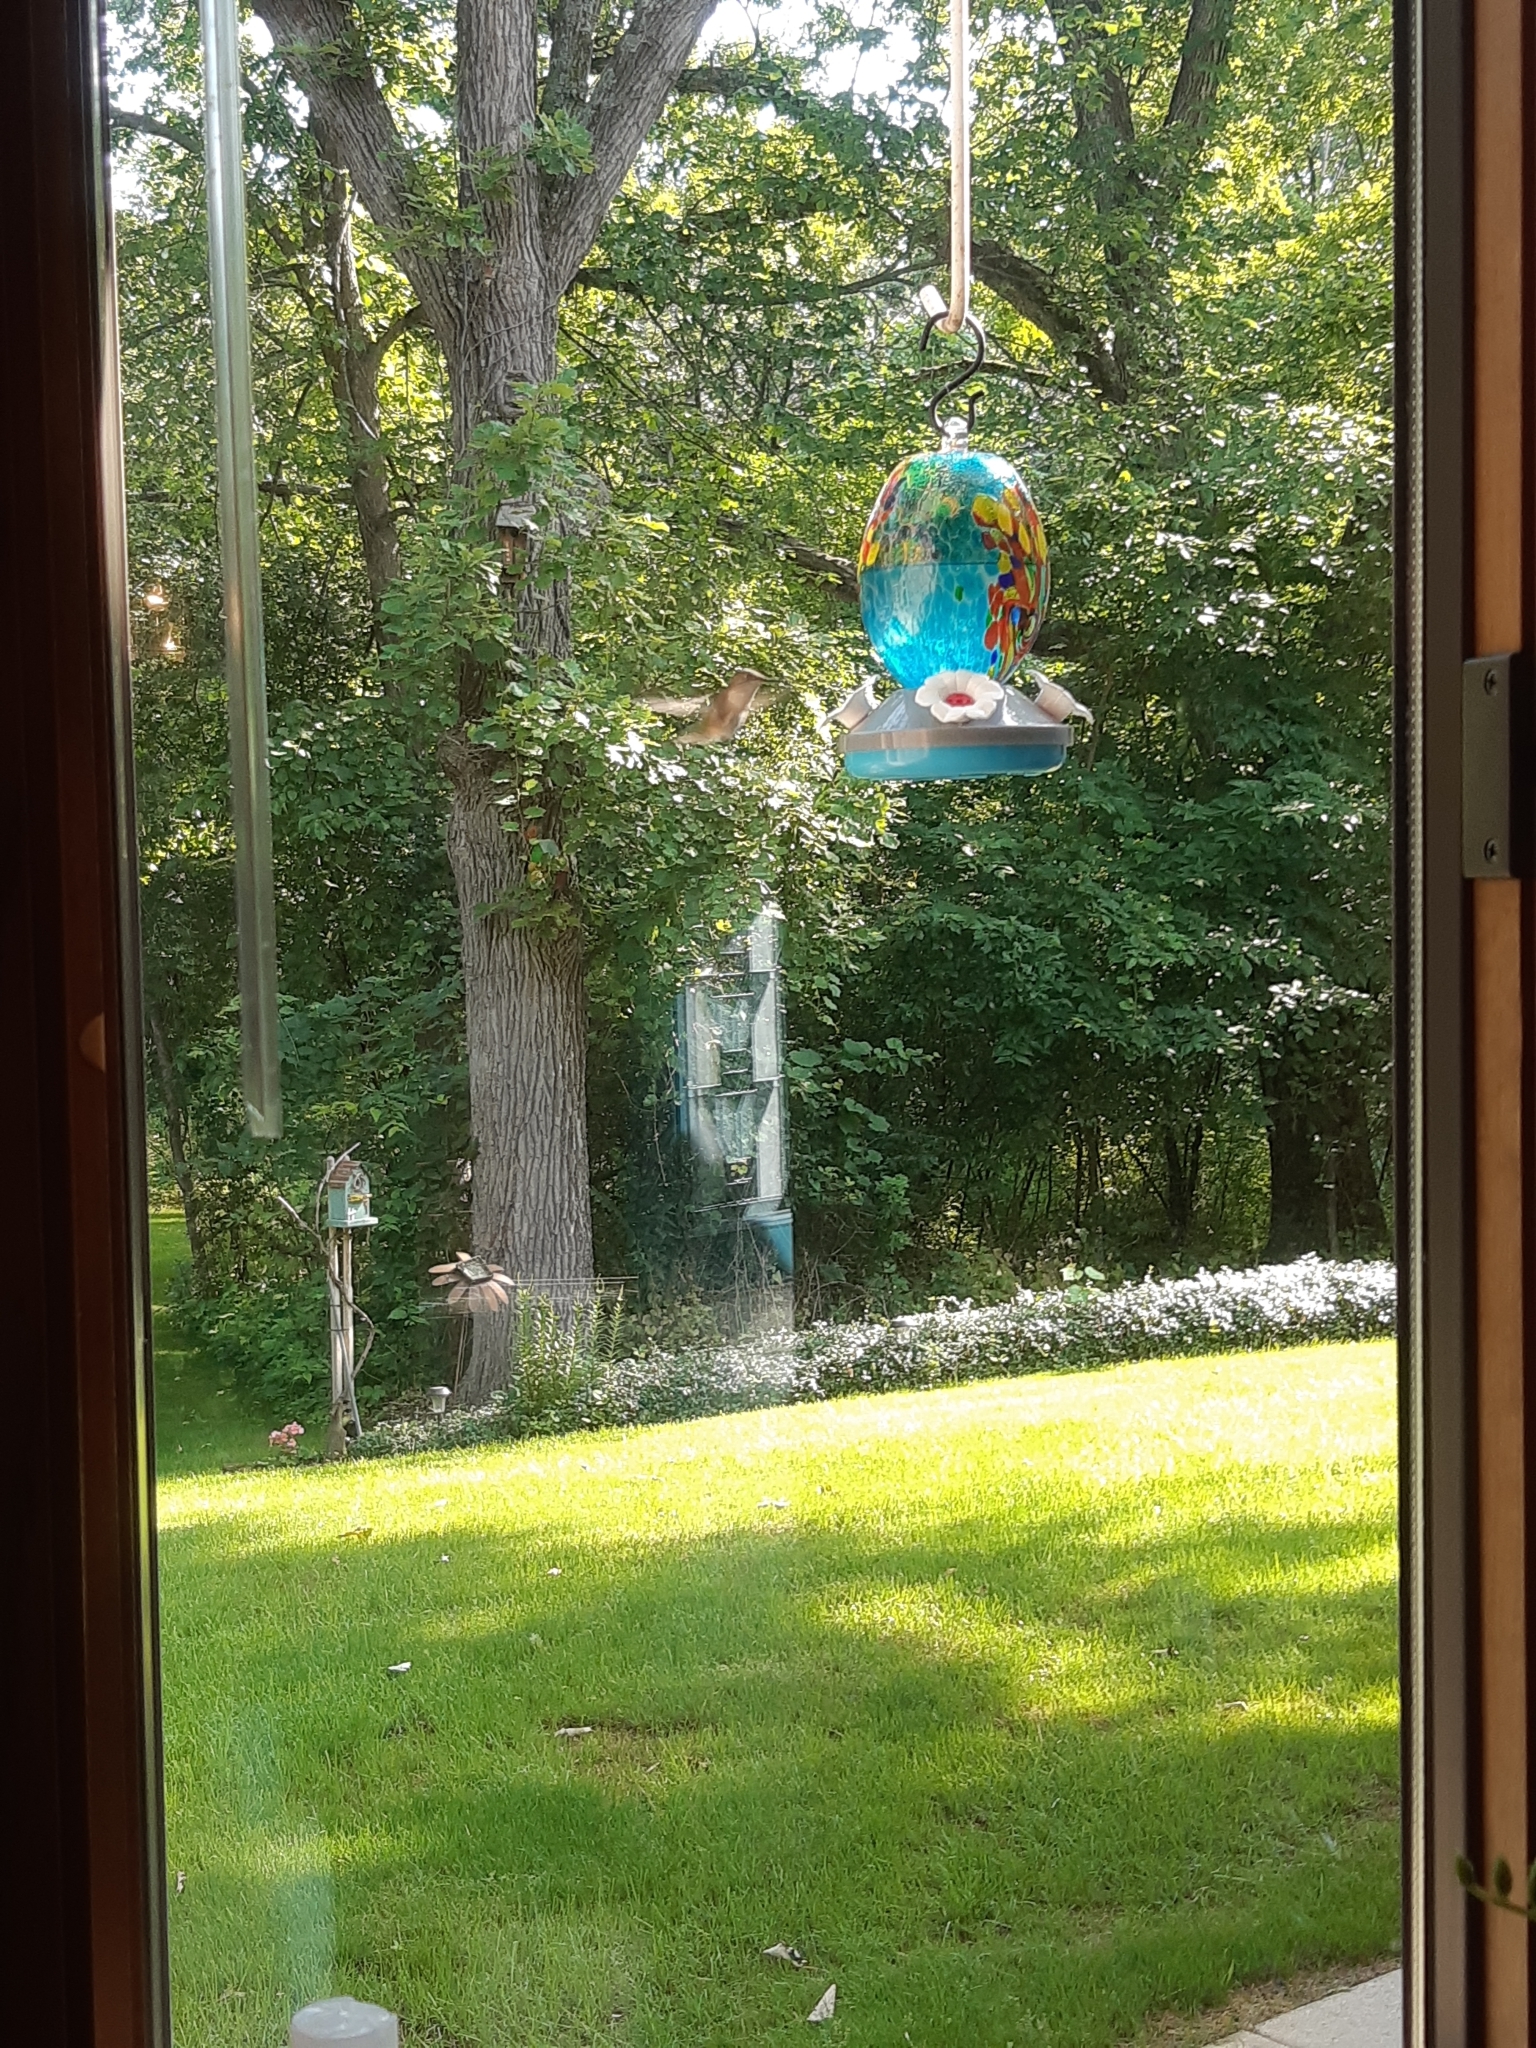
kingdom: Animalia
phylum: Chordata
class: Aves
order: Apodiformes
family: Trochilidae
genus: Archilochus
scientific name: Archilochus colubris
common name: Ruby-throated hummingbird
